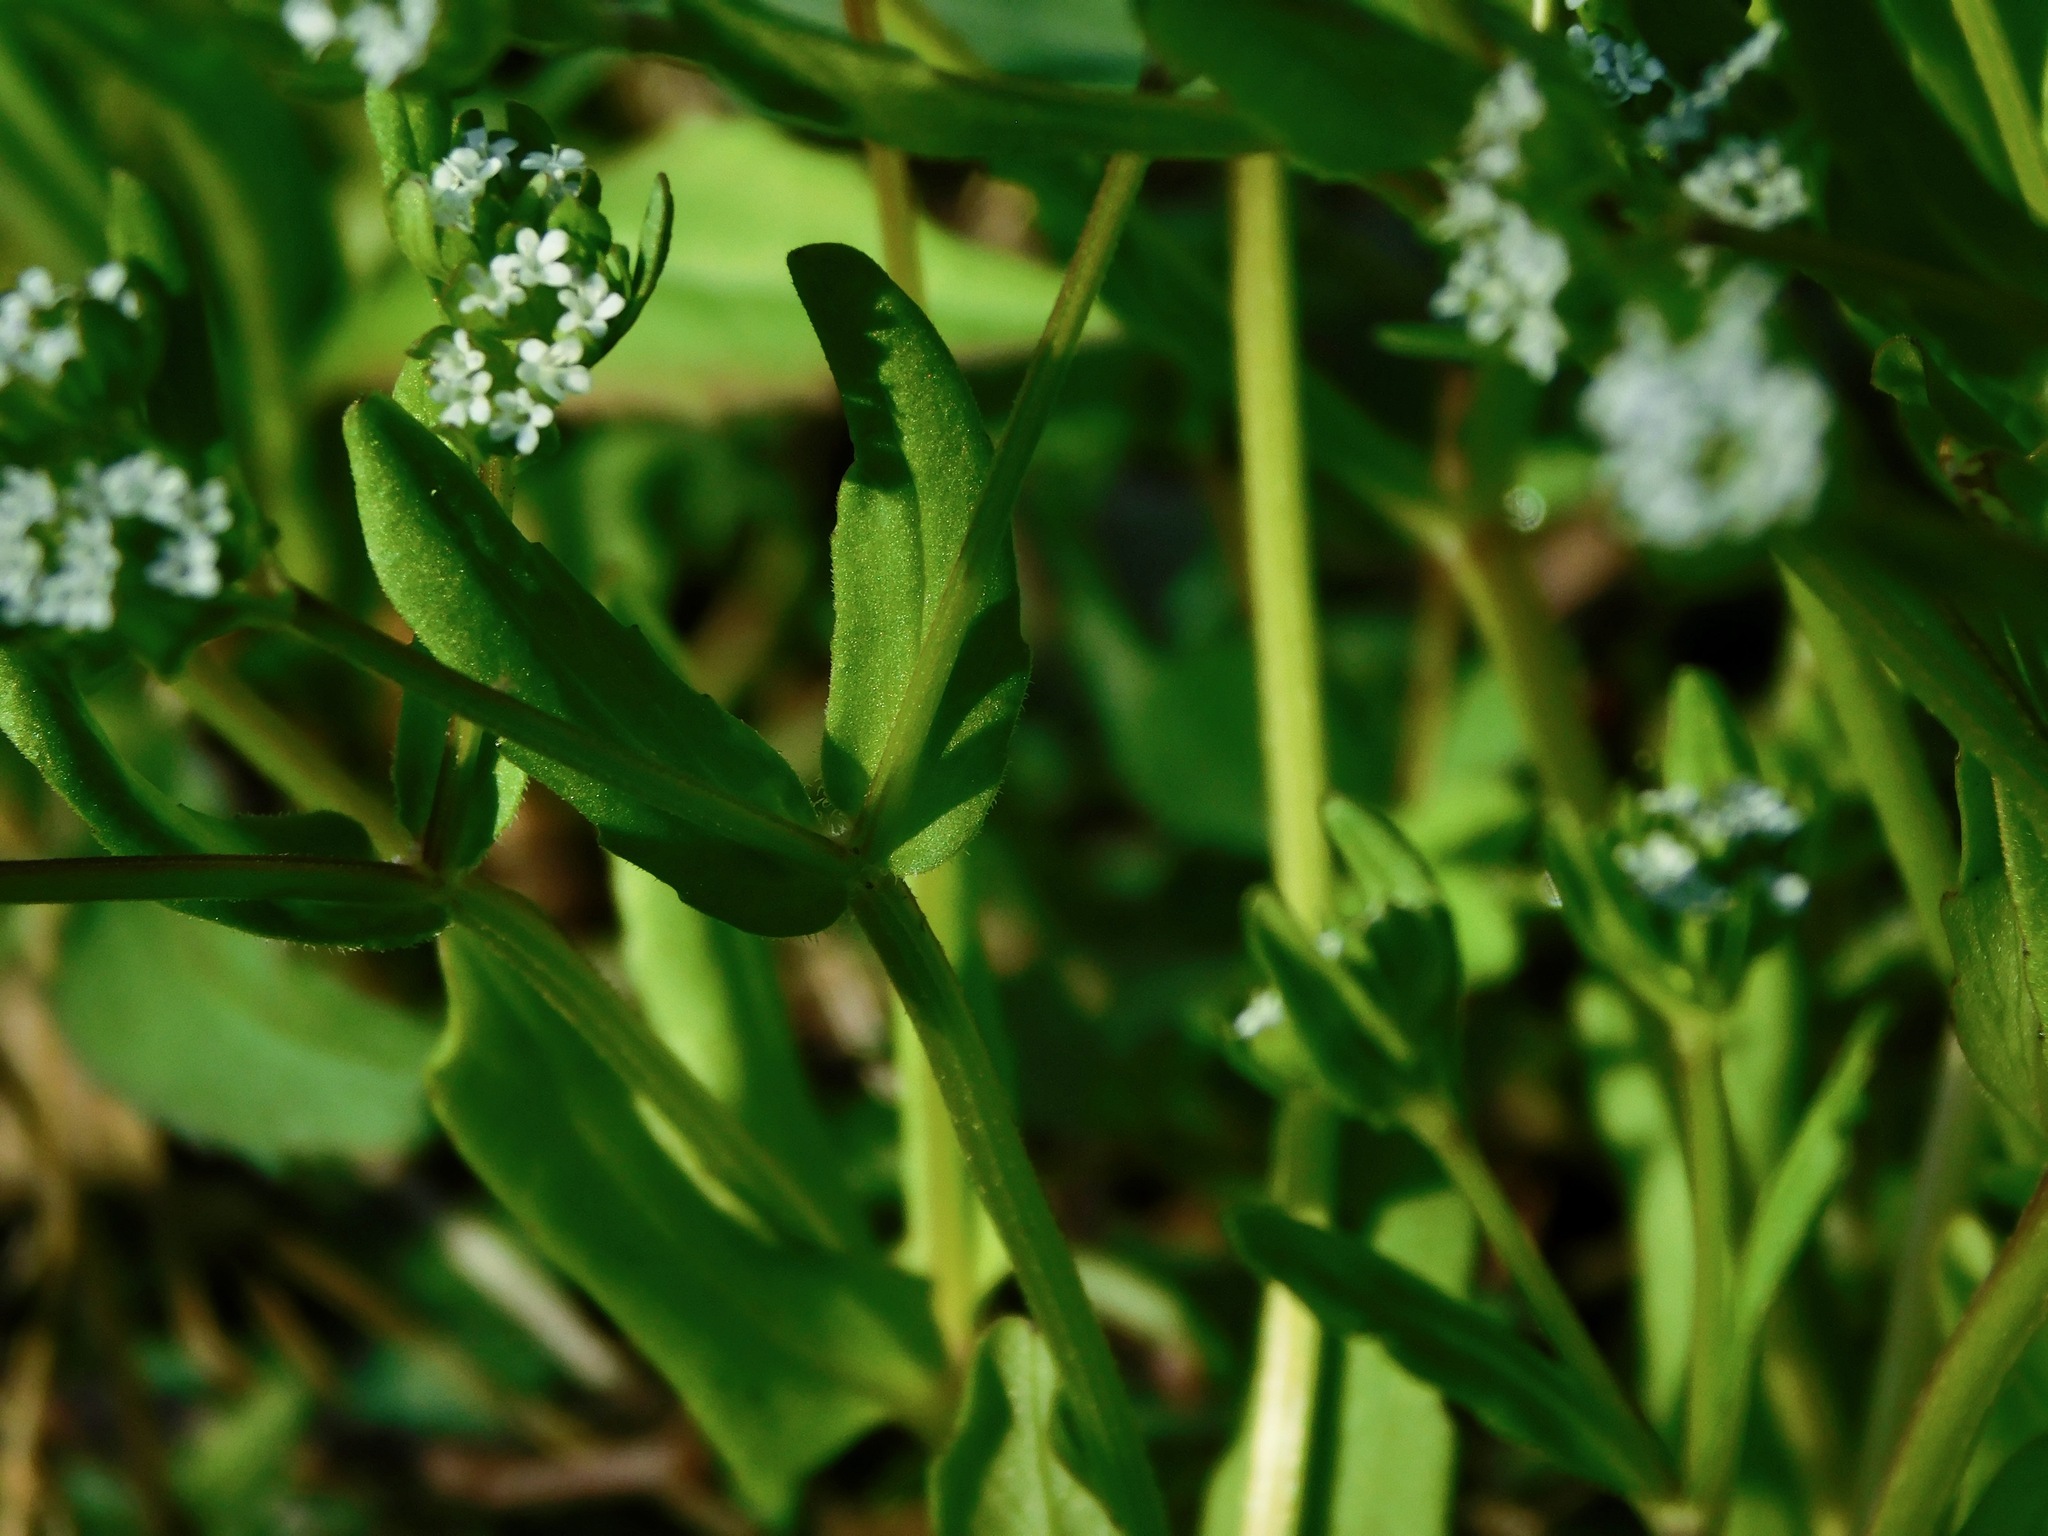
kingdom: Plantae
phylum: Tracheophyta
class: Magnoliopsida
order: Dipsacales
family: Caprifoliaceae
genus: Valerianella
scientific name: Valerianella radiata
